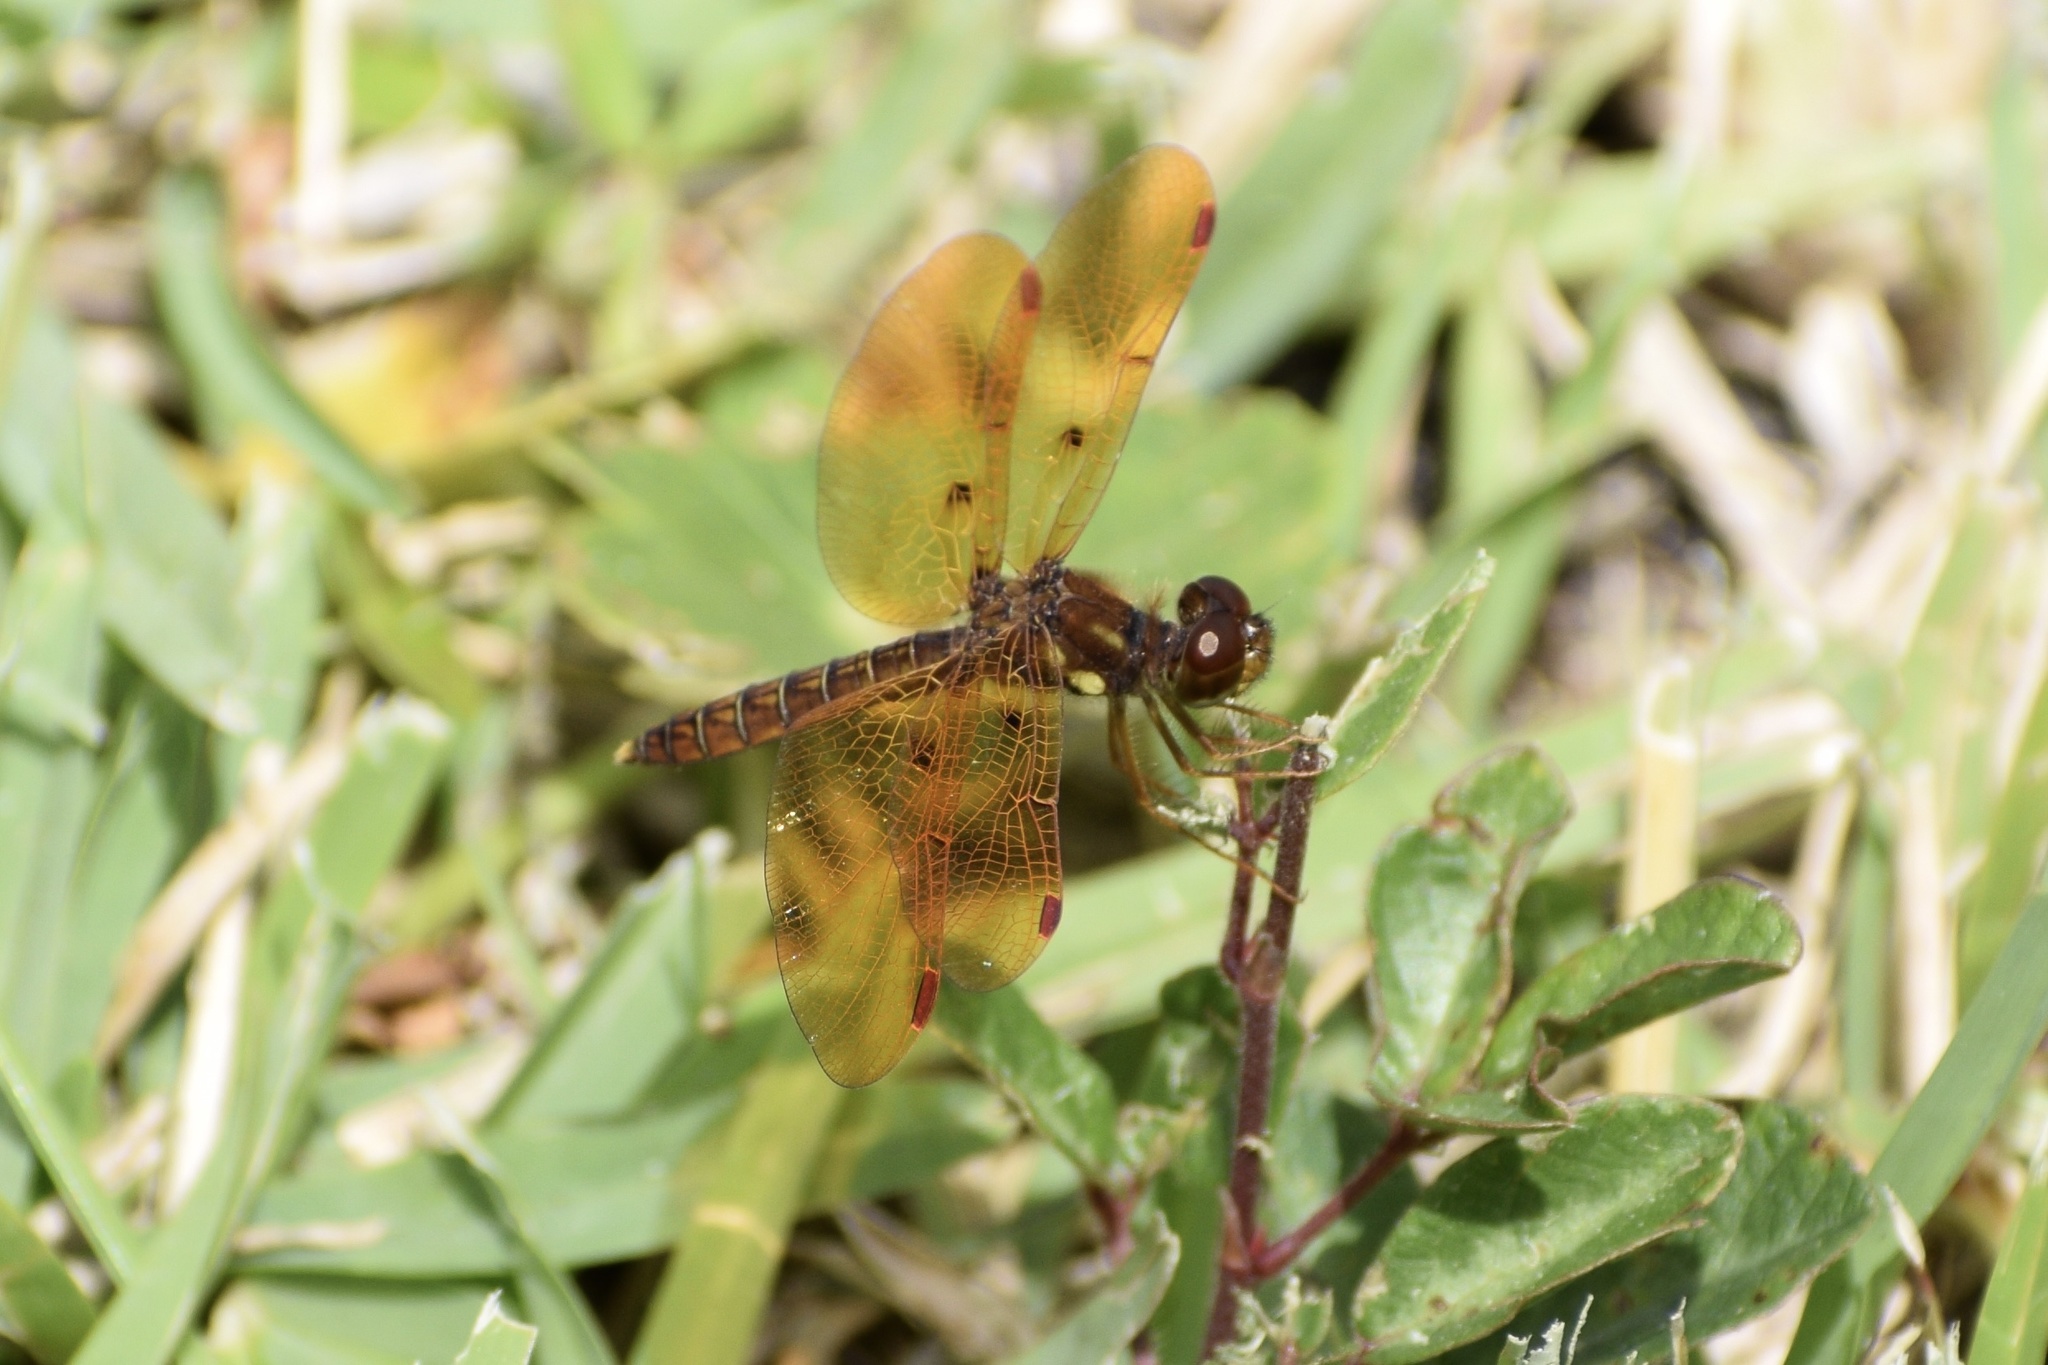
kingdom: Animalia
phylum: Arthropoda
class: Insecta
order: Odonata
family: Libellulidae
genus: Perithemis
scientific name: Perithemis tenera
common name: Eastern amberwing
